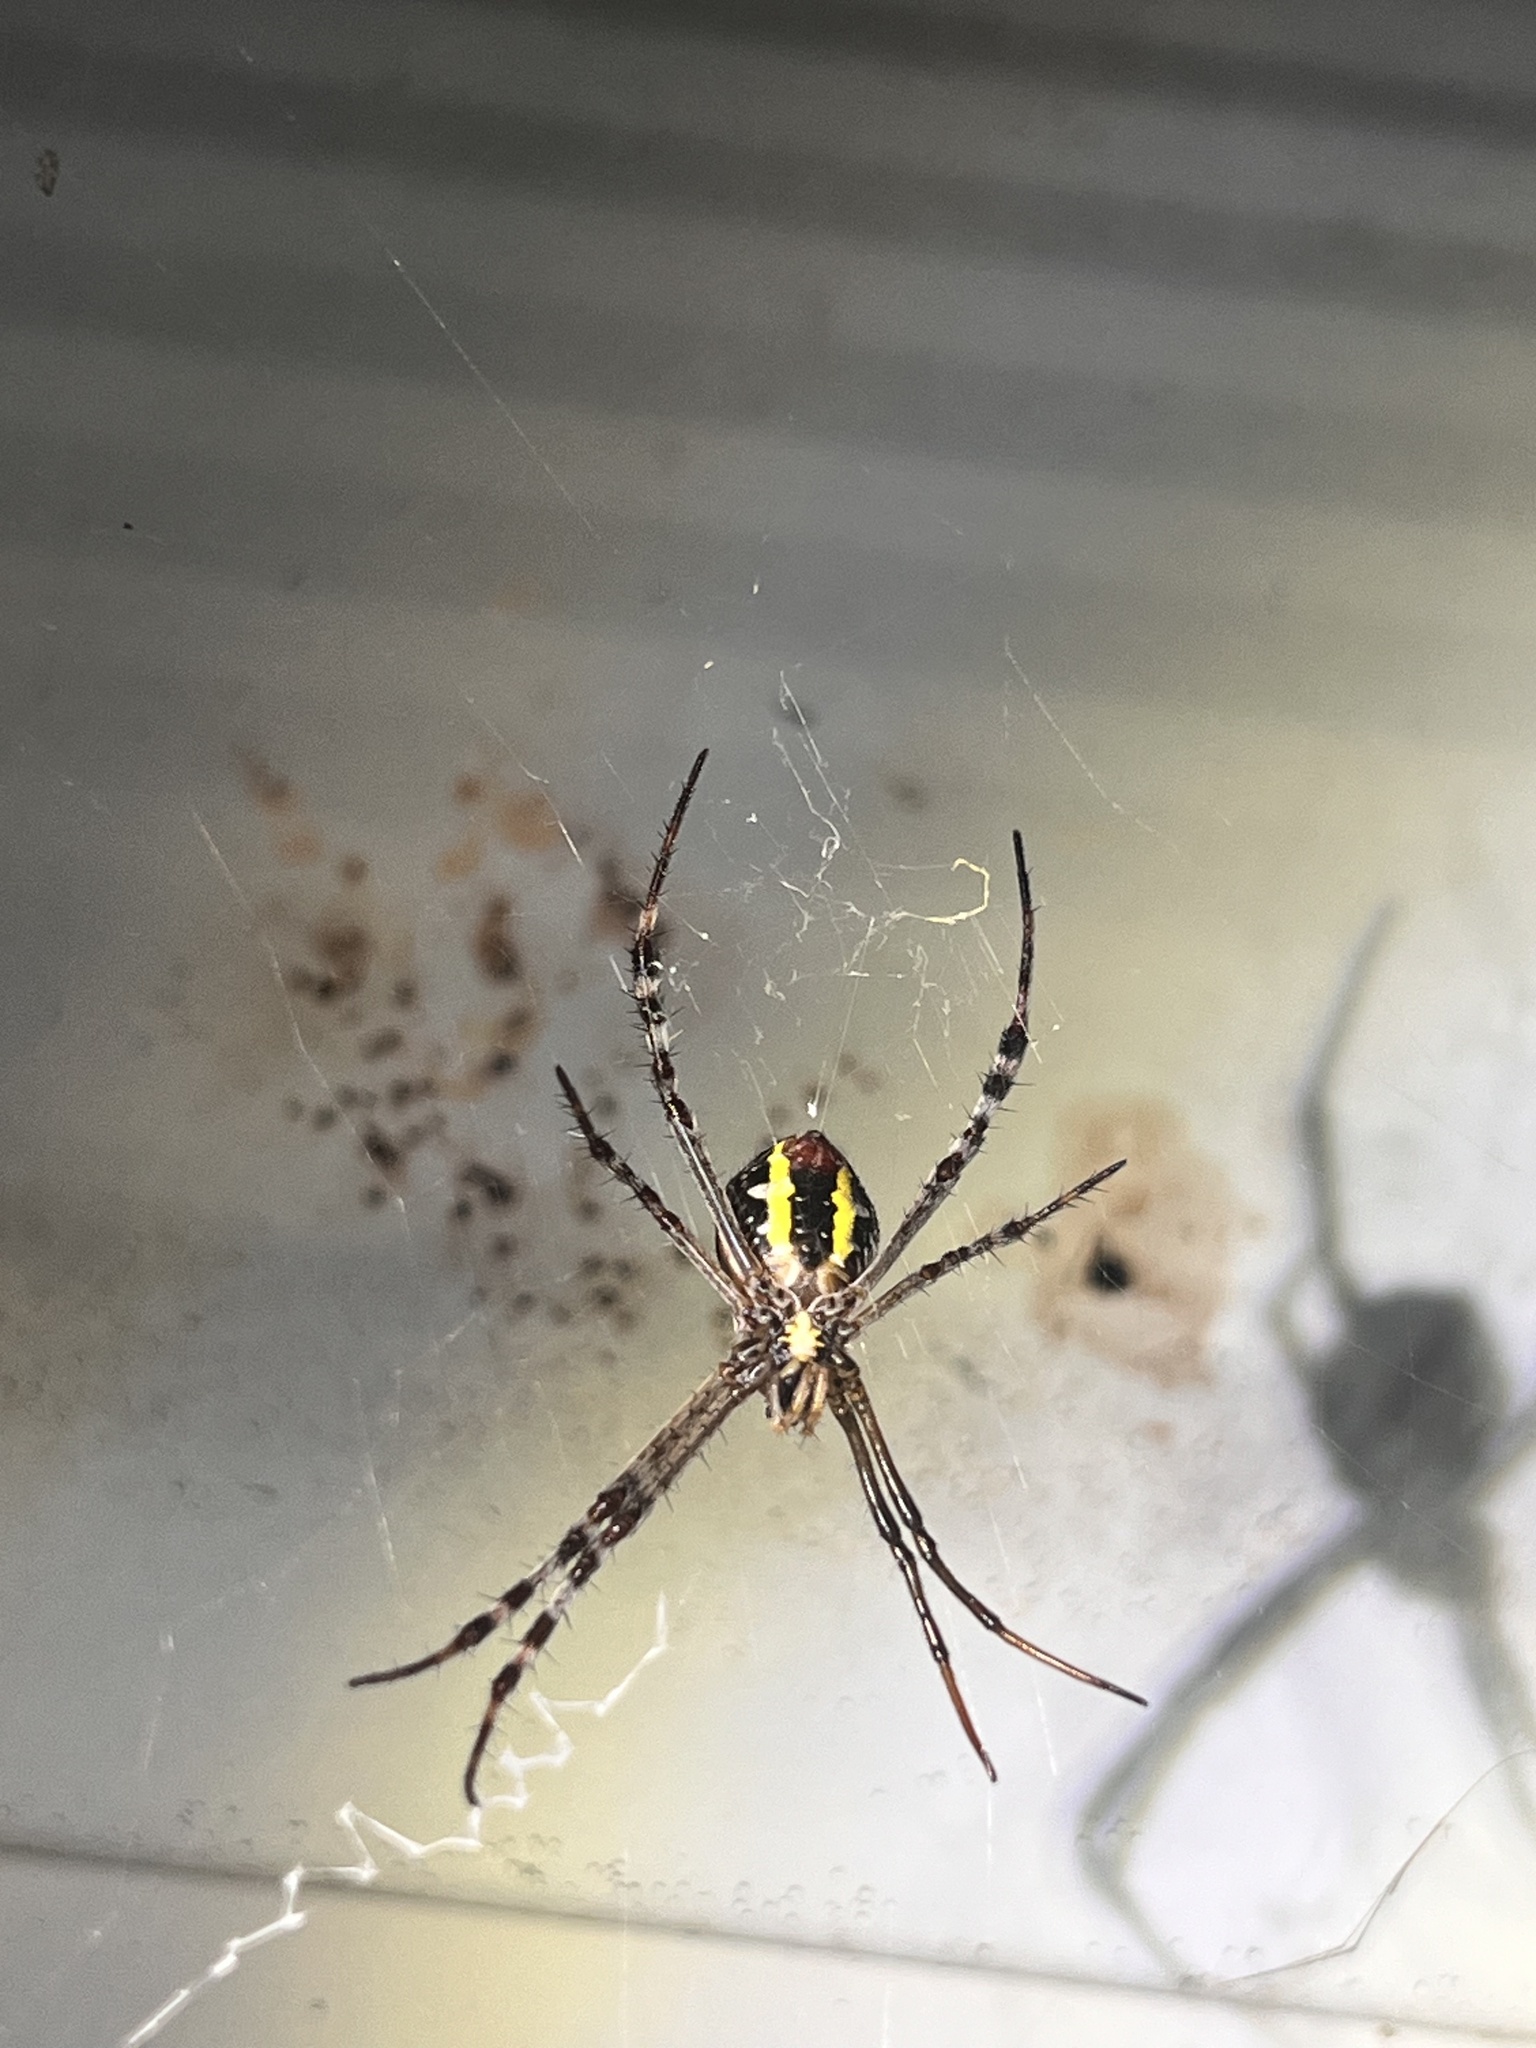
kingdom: Animalia
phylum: Arthropoda
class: Arachnida
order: Araneae
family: Araneidae
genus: Argiope
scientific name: Argiope picta
